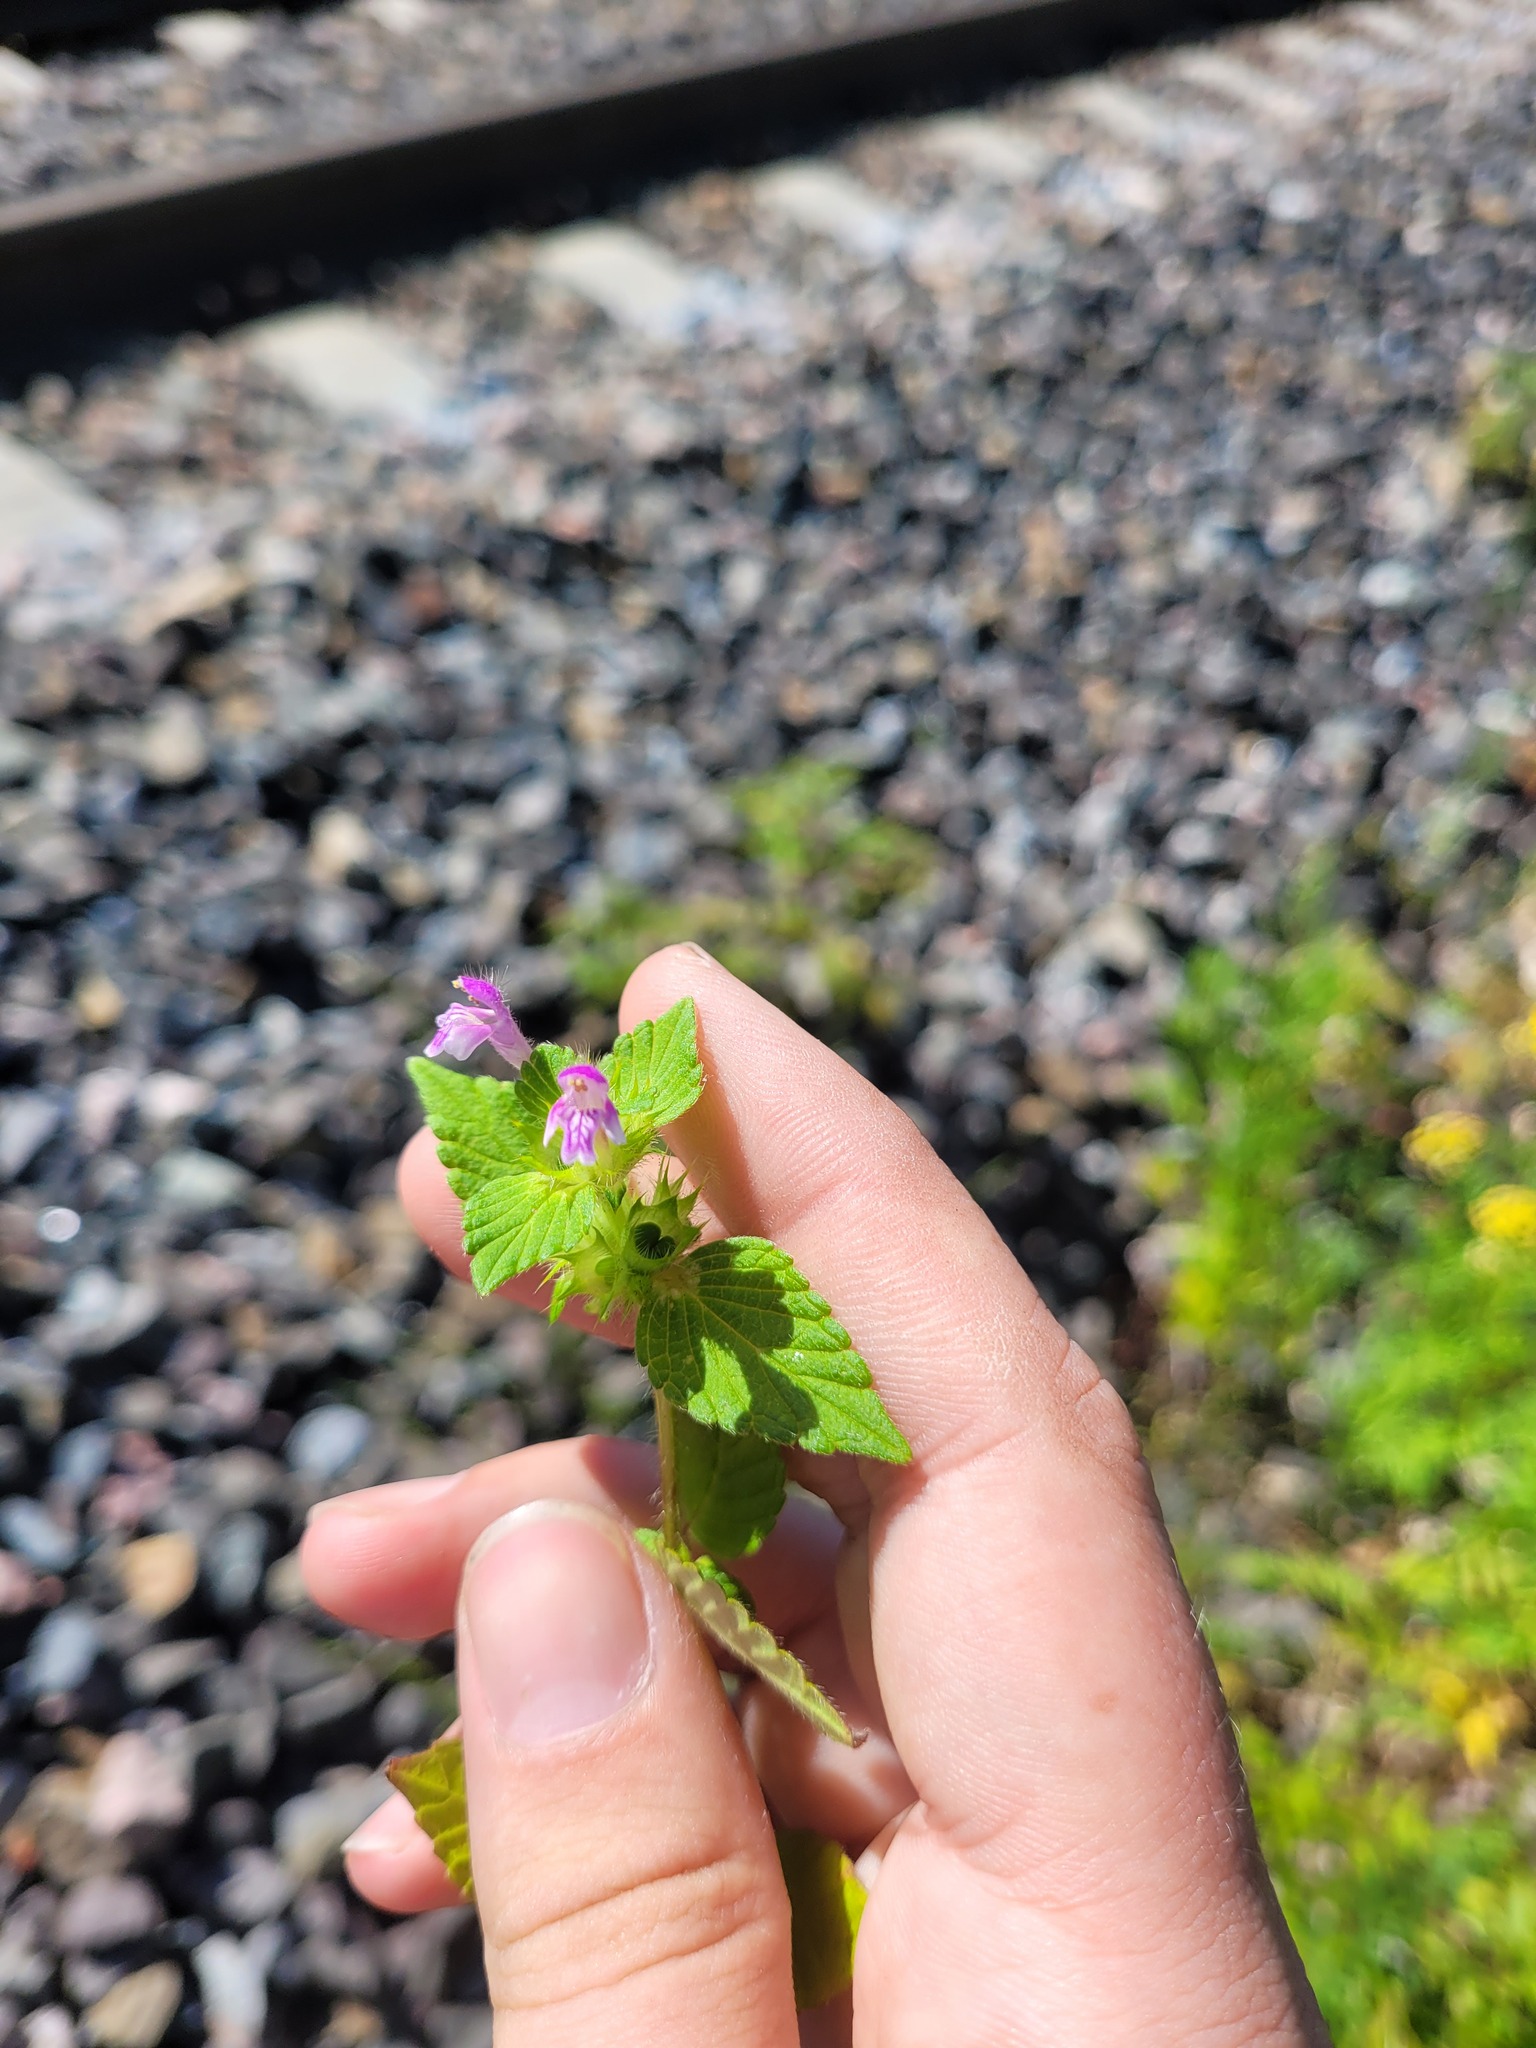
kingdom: Plantae
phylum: Tracheophyta
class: Magnoliopsida
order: Lamiales
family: Lamiaceae
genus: Galeopsis
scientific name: Galeopsis bifida
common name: Bifid hemp-nettle
